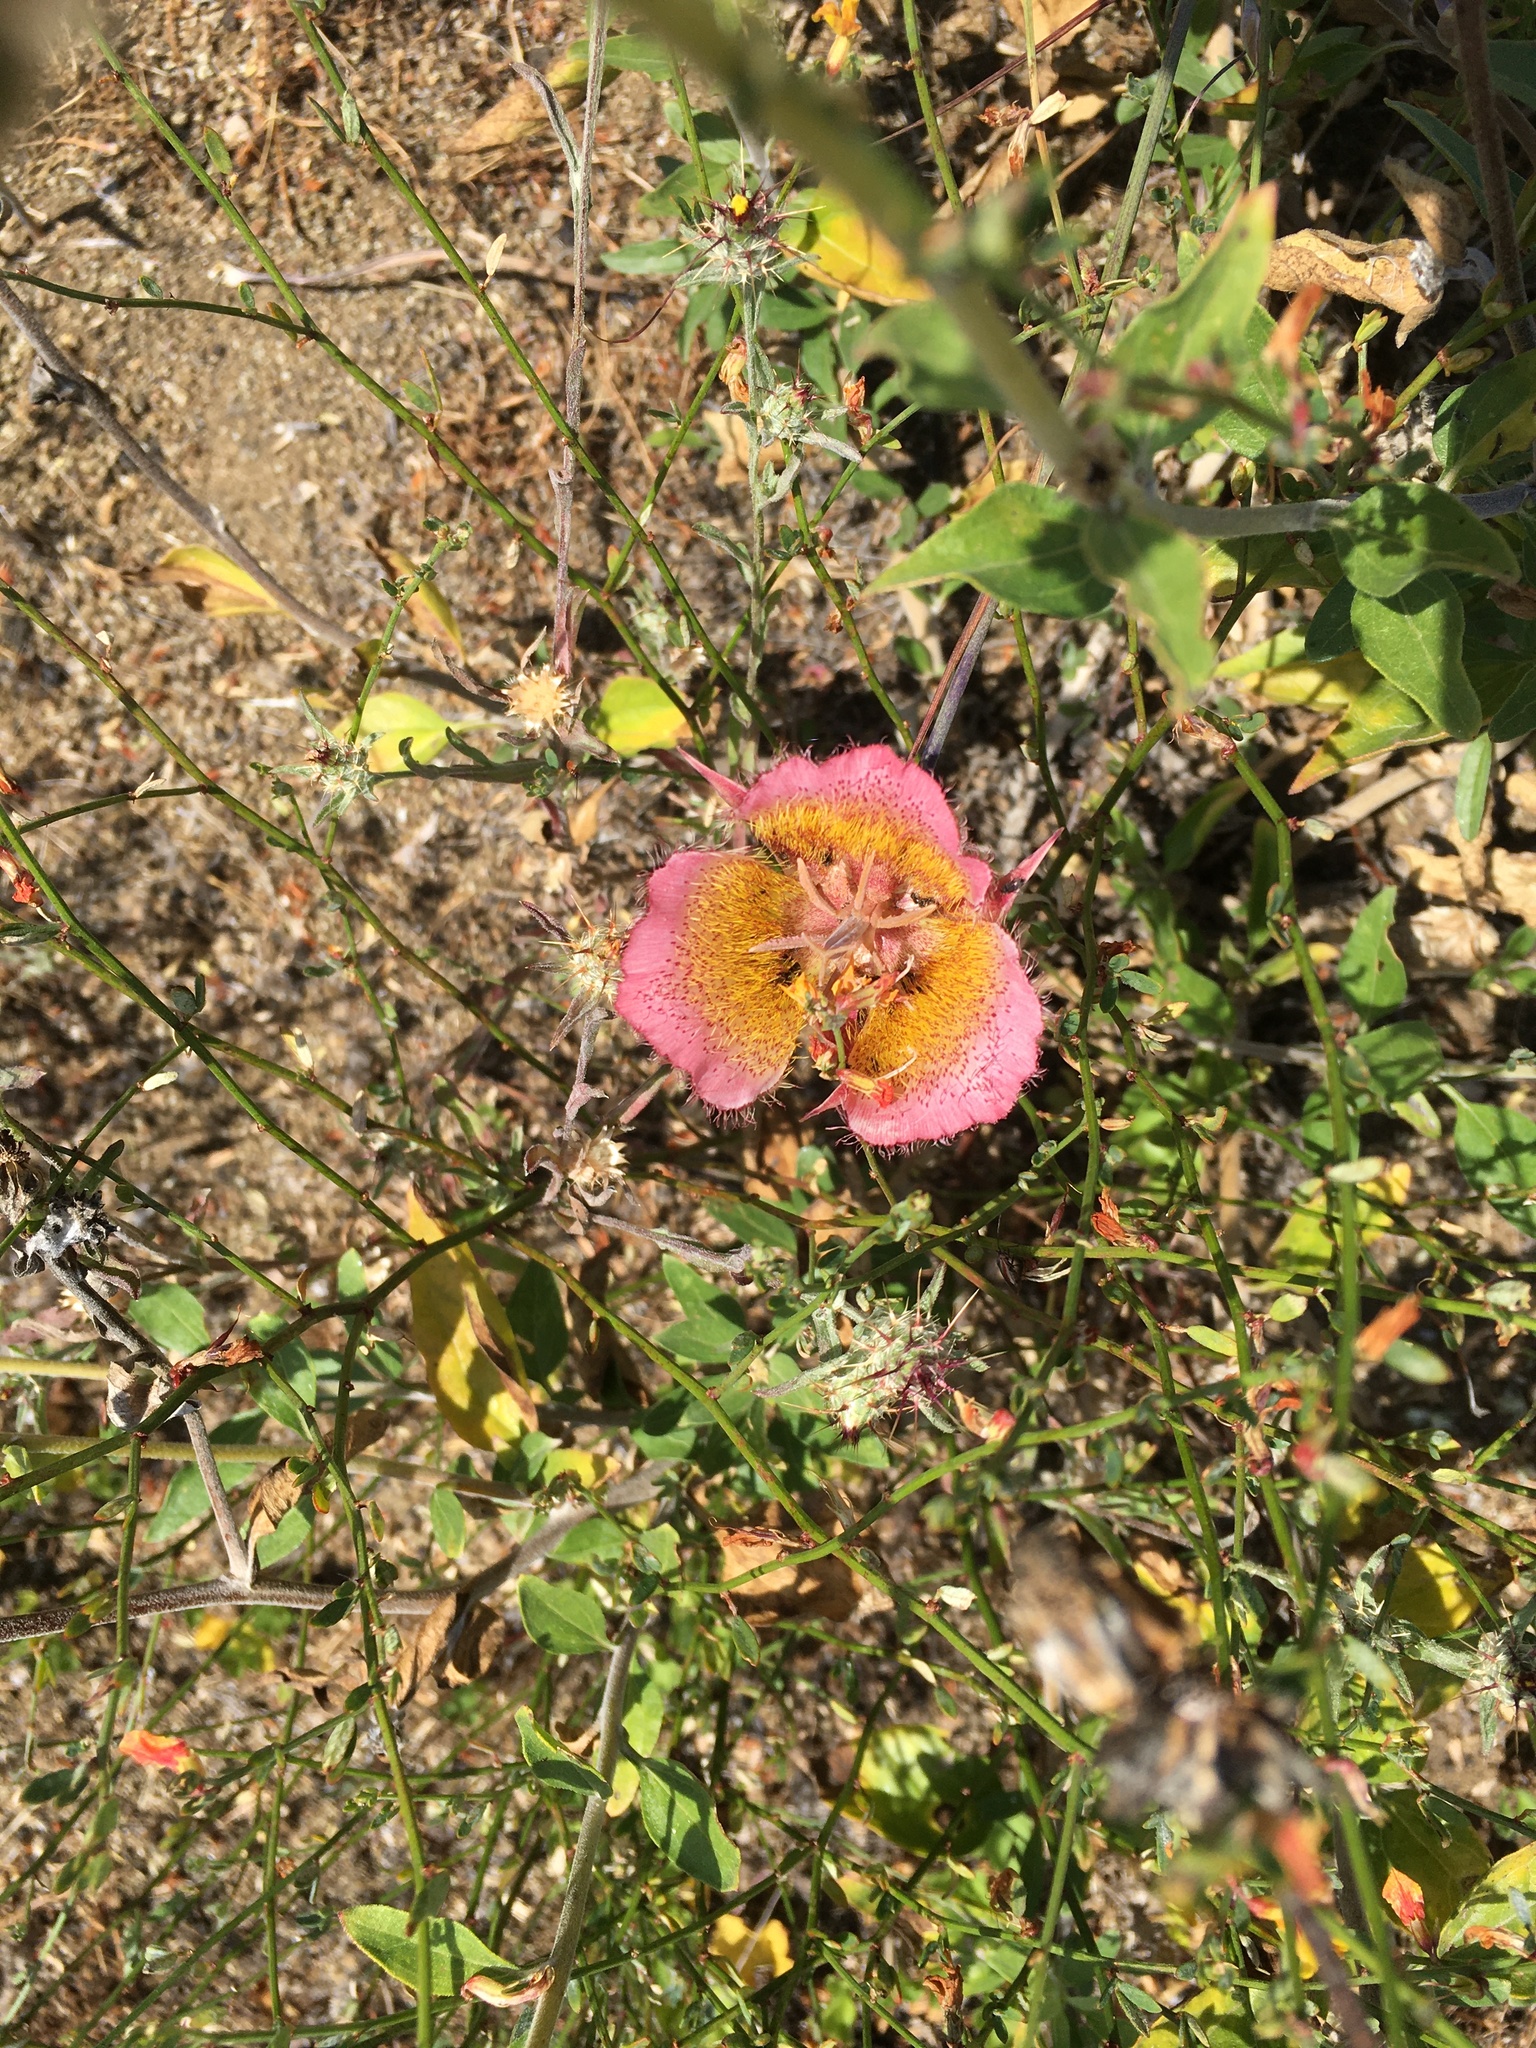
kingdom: Plantae
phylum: Tracheophyta
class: Liliopsida
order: Liliales
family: Liliaceae
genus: Calochortus
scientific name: Calochortus plummerae
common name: Plummer's mariposa-lily
